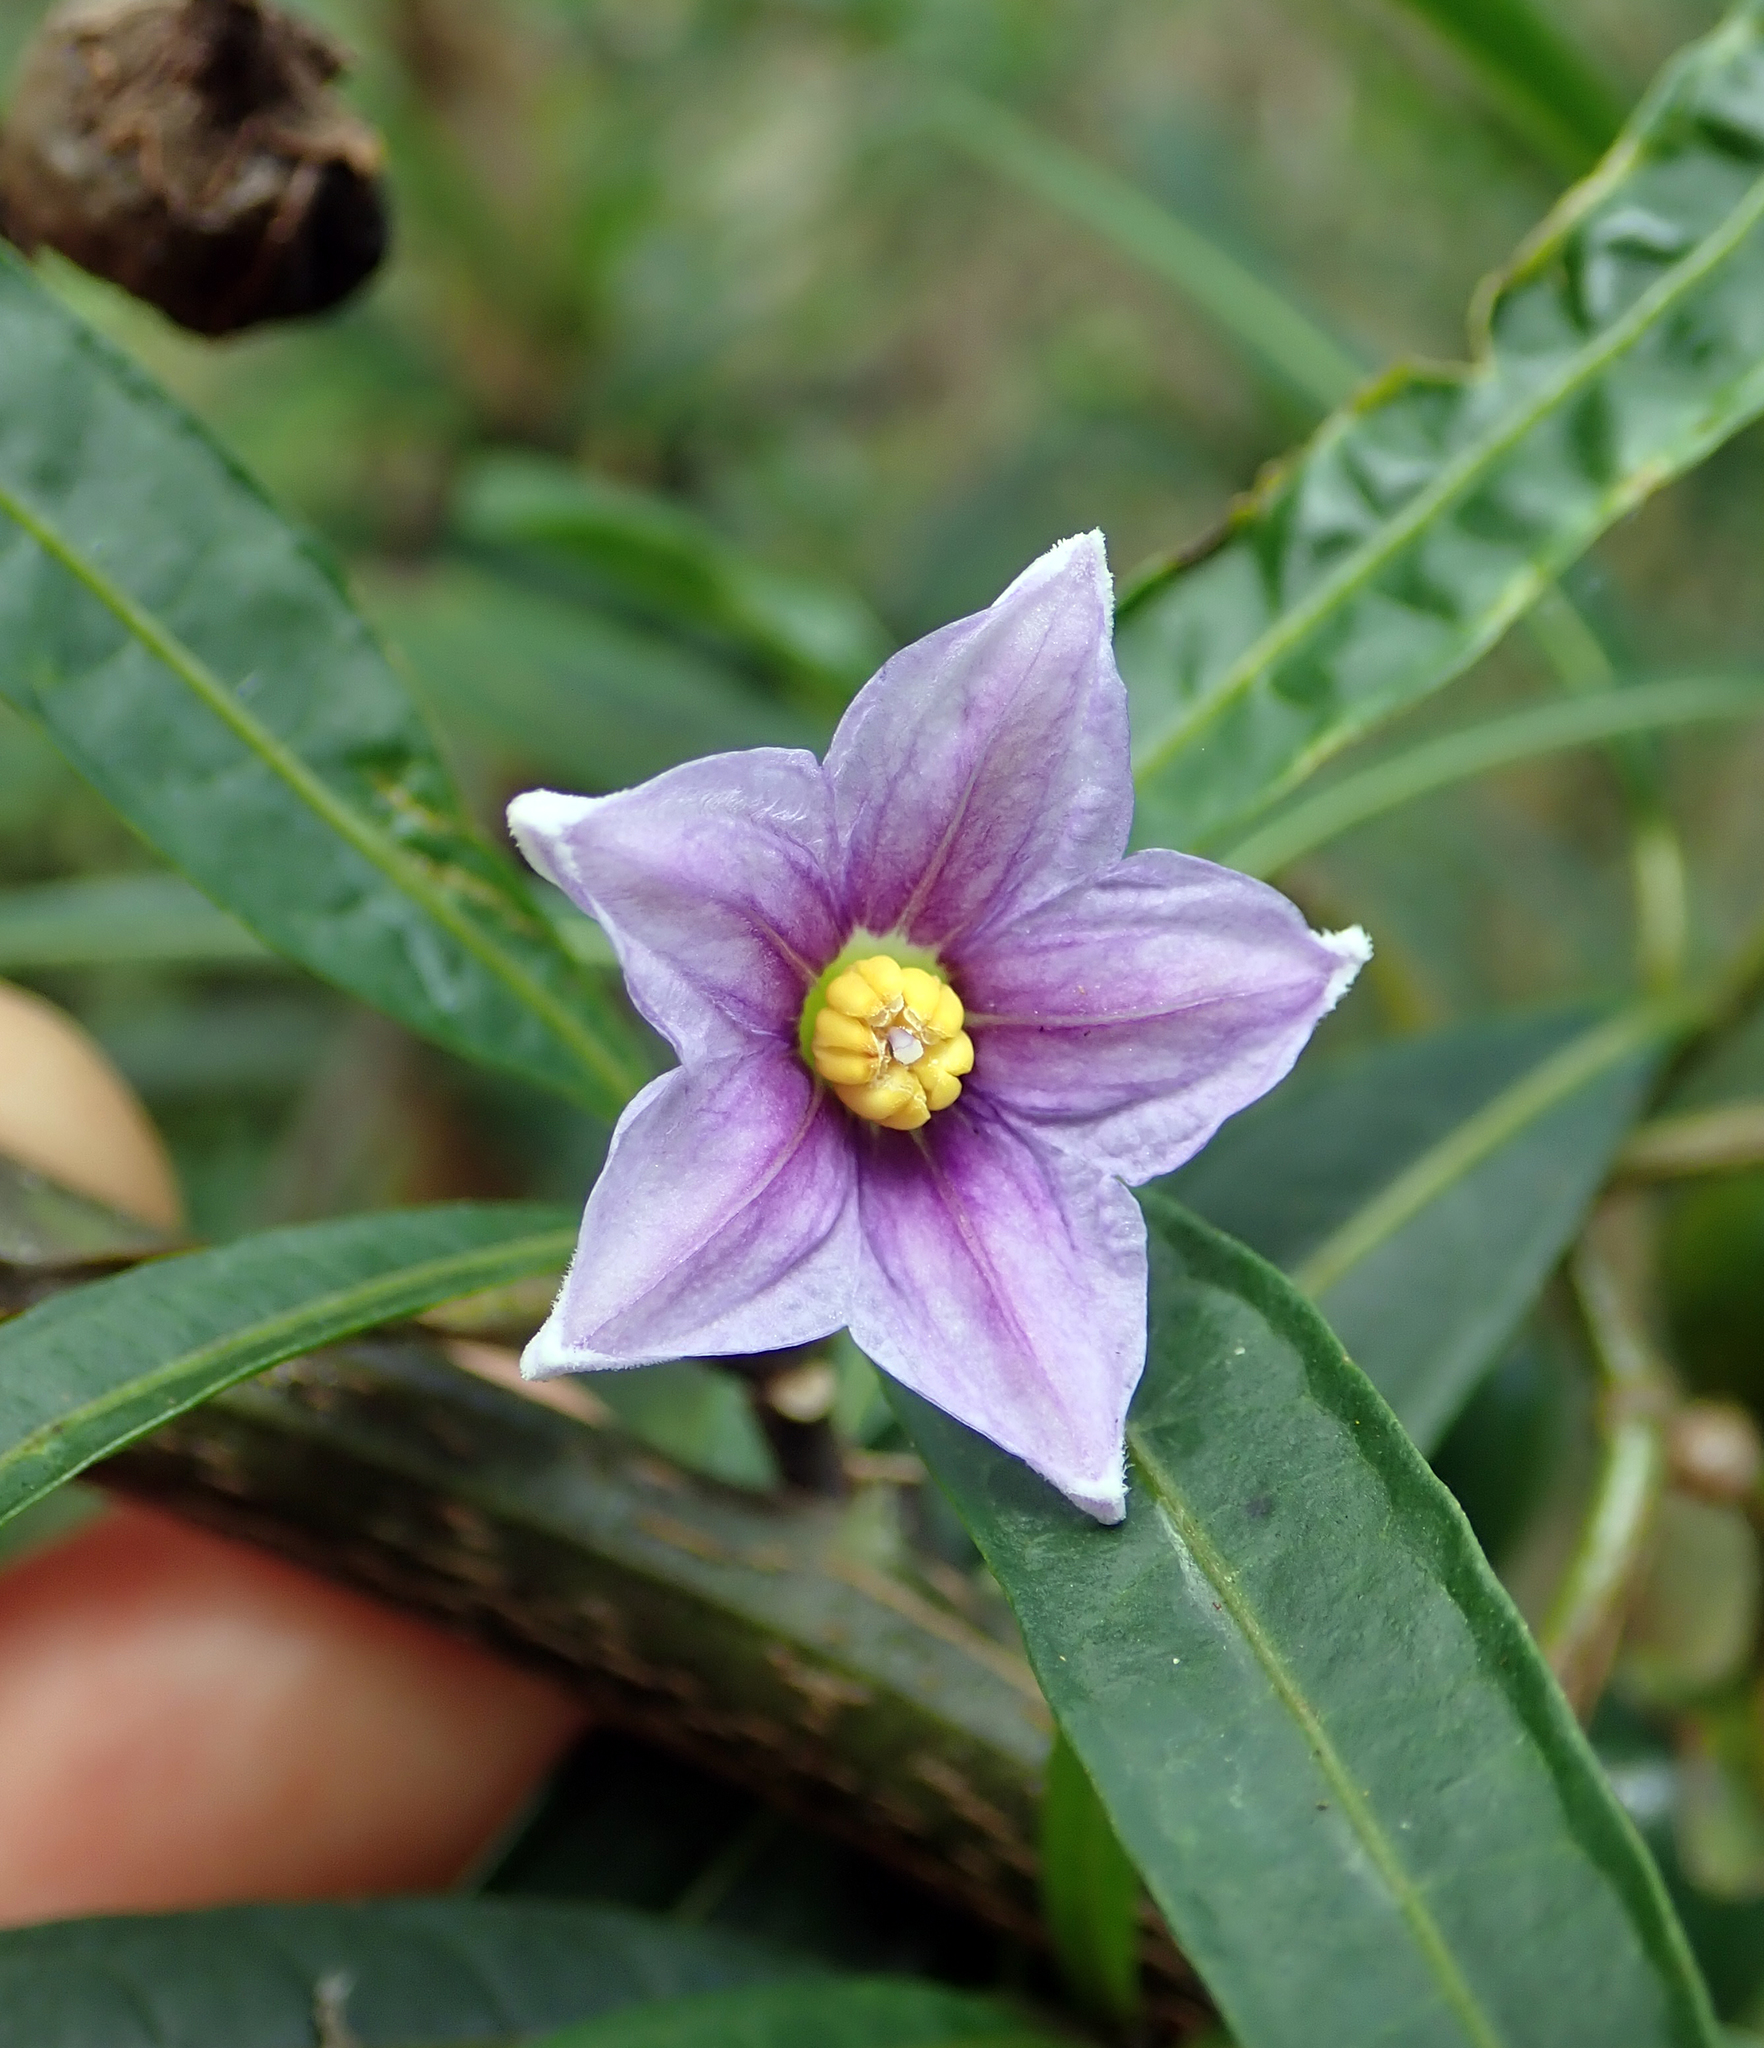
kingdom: Plantae
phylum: Tracheophyta
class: Magnoliopsida
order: Solanales
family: Solanaceae
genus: Solanum
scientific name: Solanum aviculare
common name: New zealand nightshade
